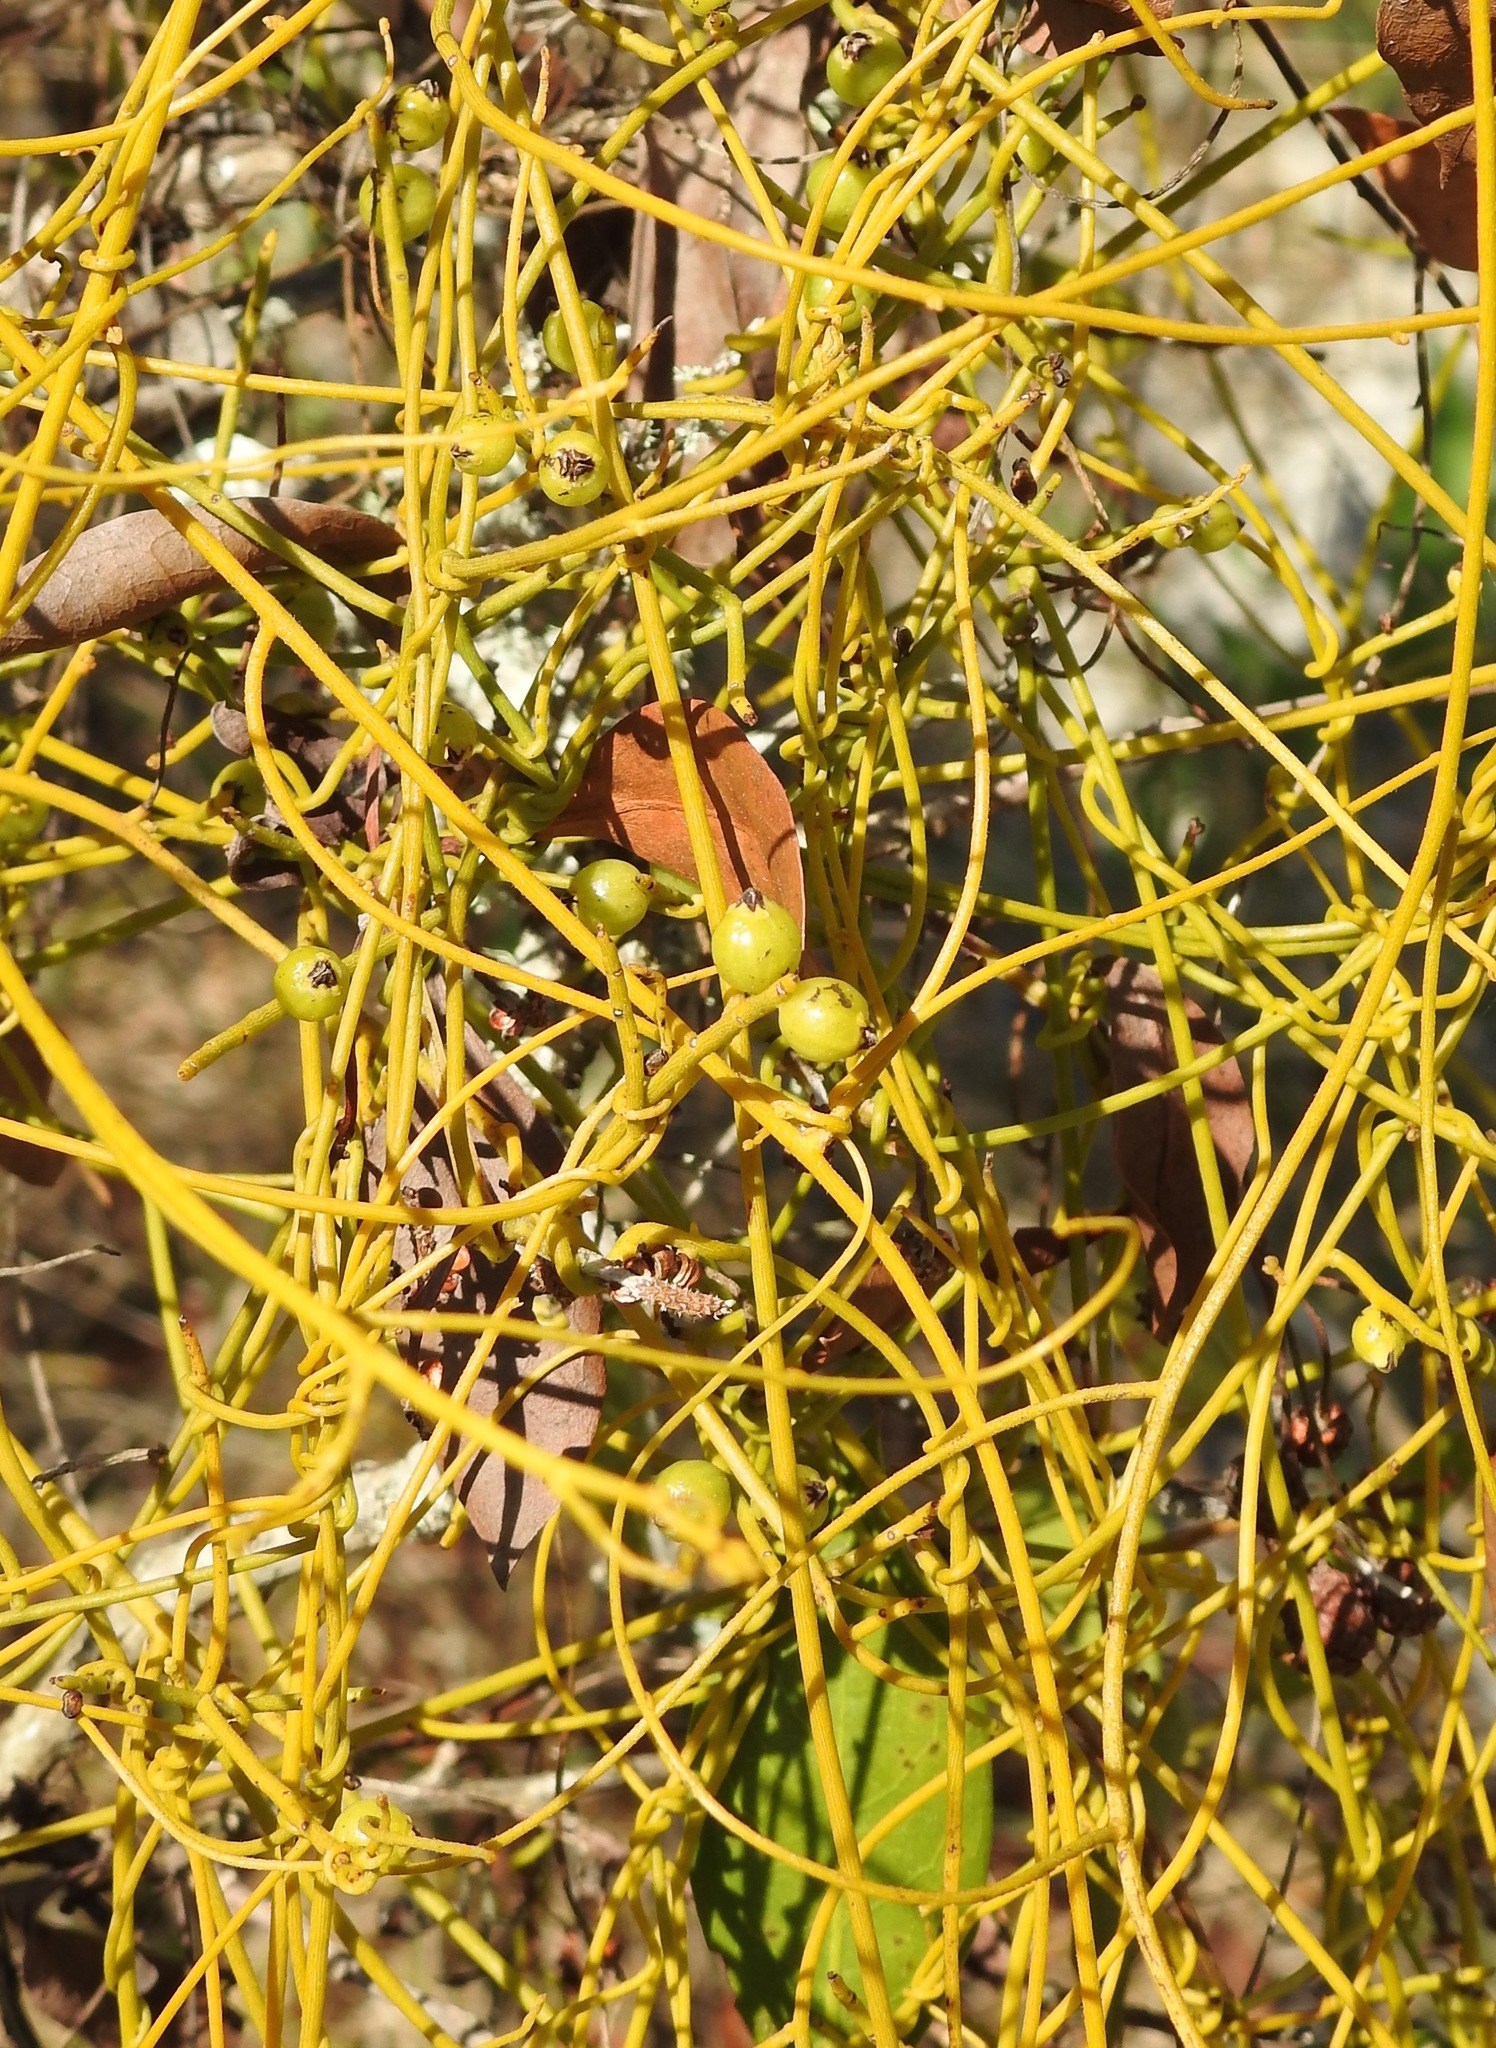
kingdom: Plantae
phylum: Tracheophyta
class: Magnoliopsida
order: Laurales
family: Lauraceae
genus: Cassytha
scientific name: Cassytha filiformis
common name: Dodder-laurel
